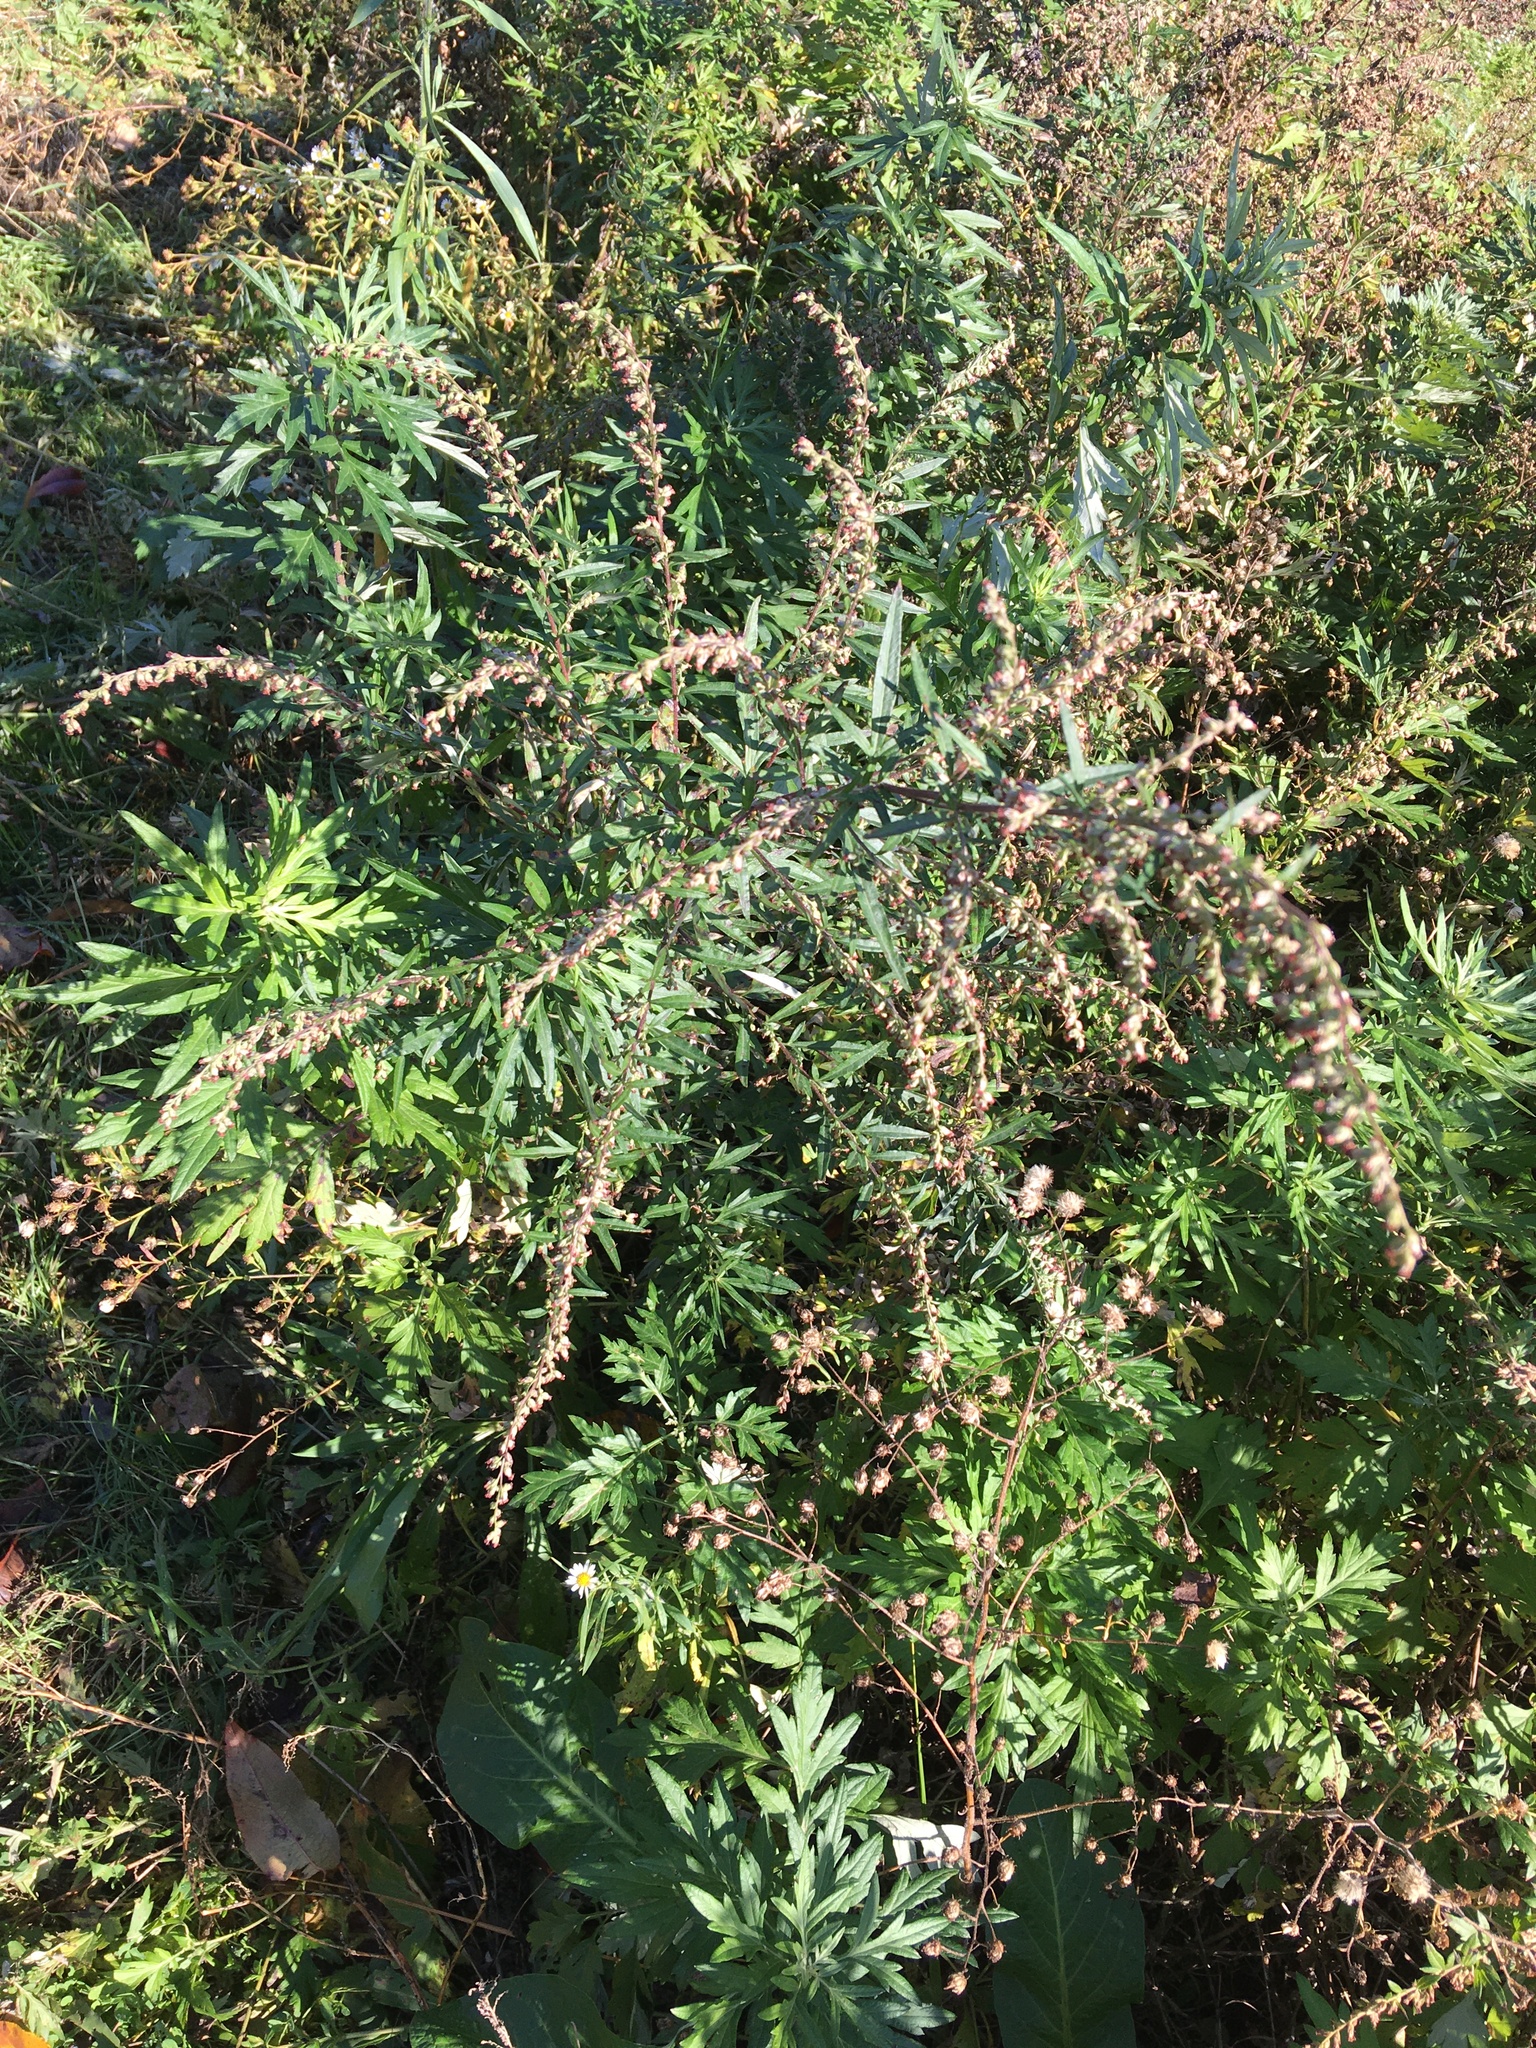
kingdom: Plantae
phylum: Tracheophyta
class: Magnoliopsida
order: Asterales
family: Asteraceae
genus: Artemisia
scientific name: Artemisia vulgaris
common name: Mugwort
